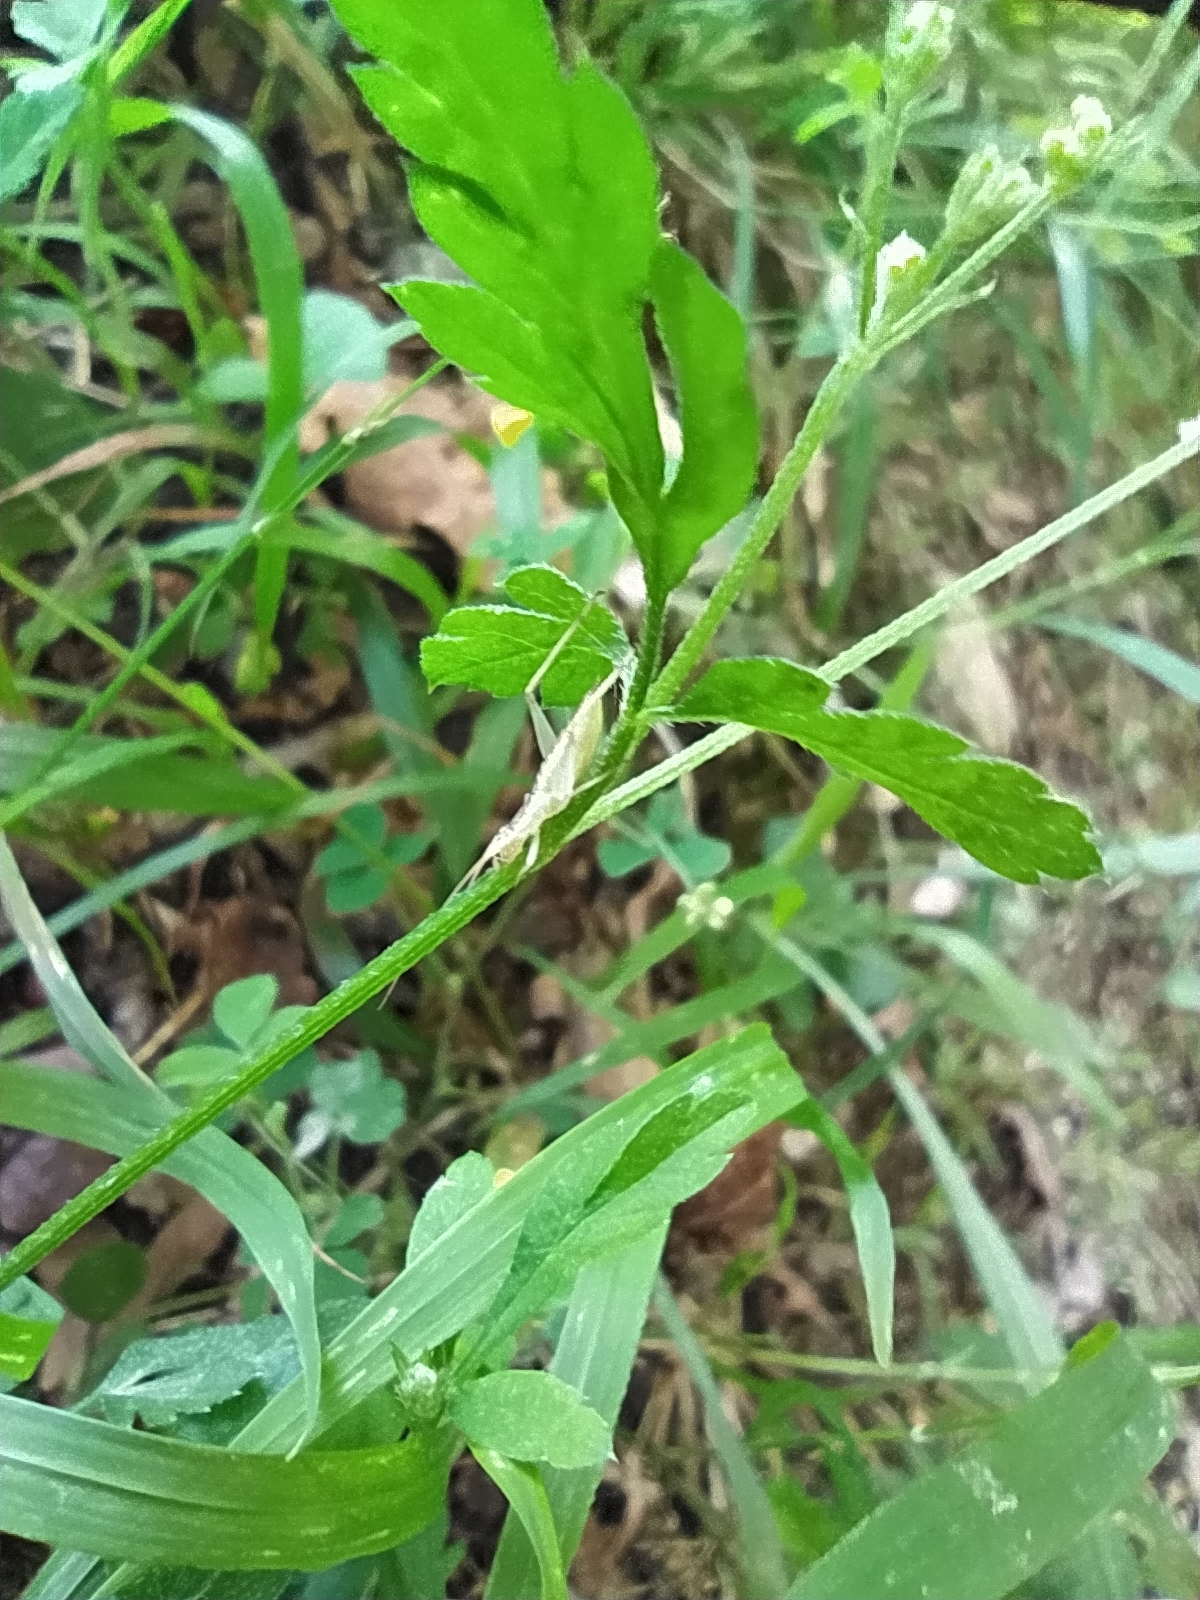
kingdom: Animalia
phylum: Arthropoda
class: Insecta
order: Orthoptera
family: Gryllidae
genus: Oecanthus
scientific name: Oecanthus pellucens
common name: Tree-cricket
